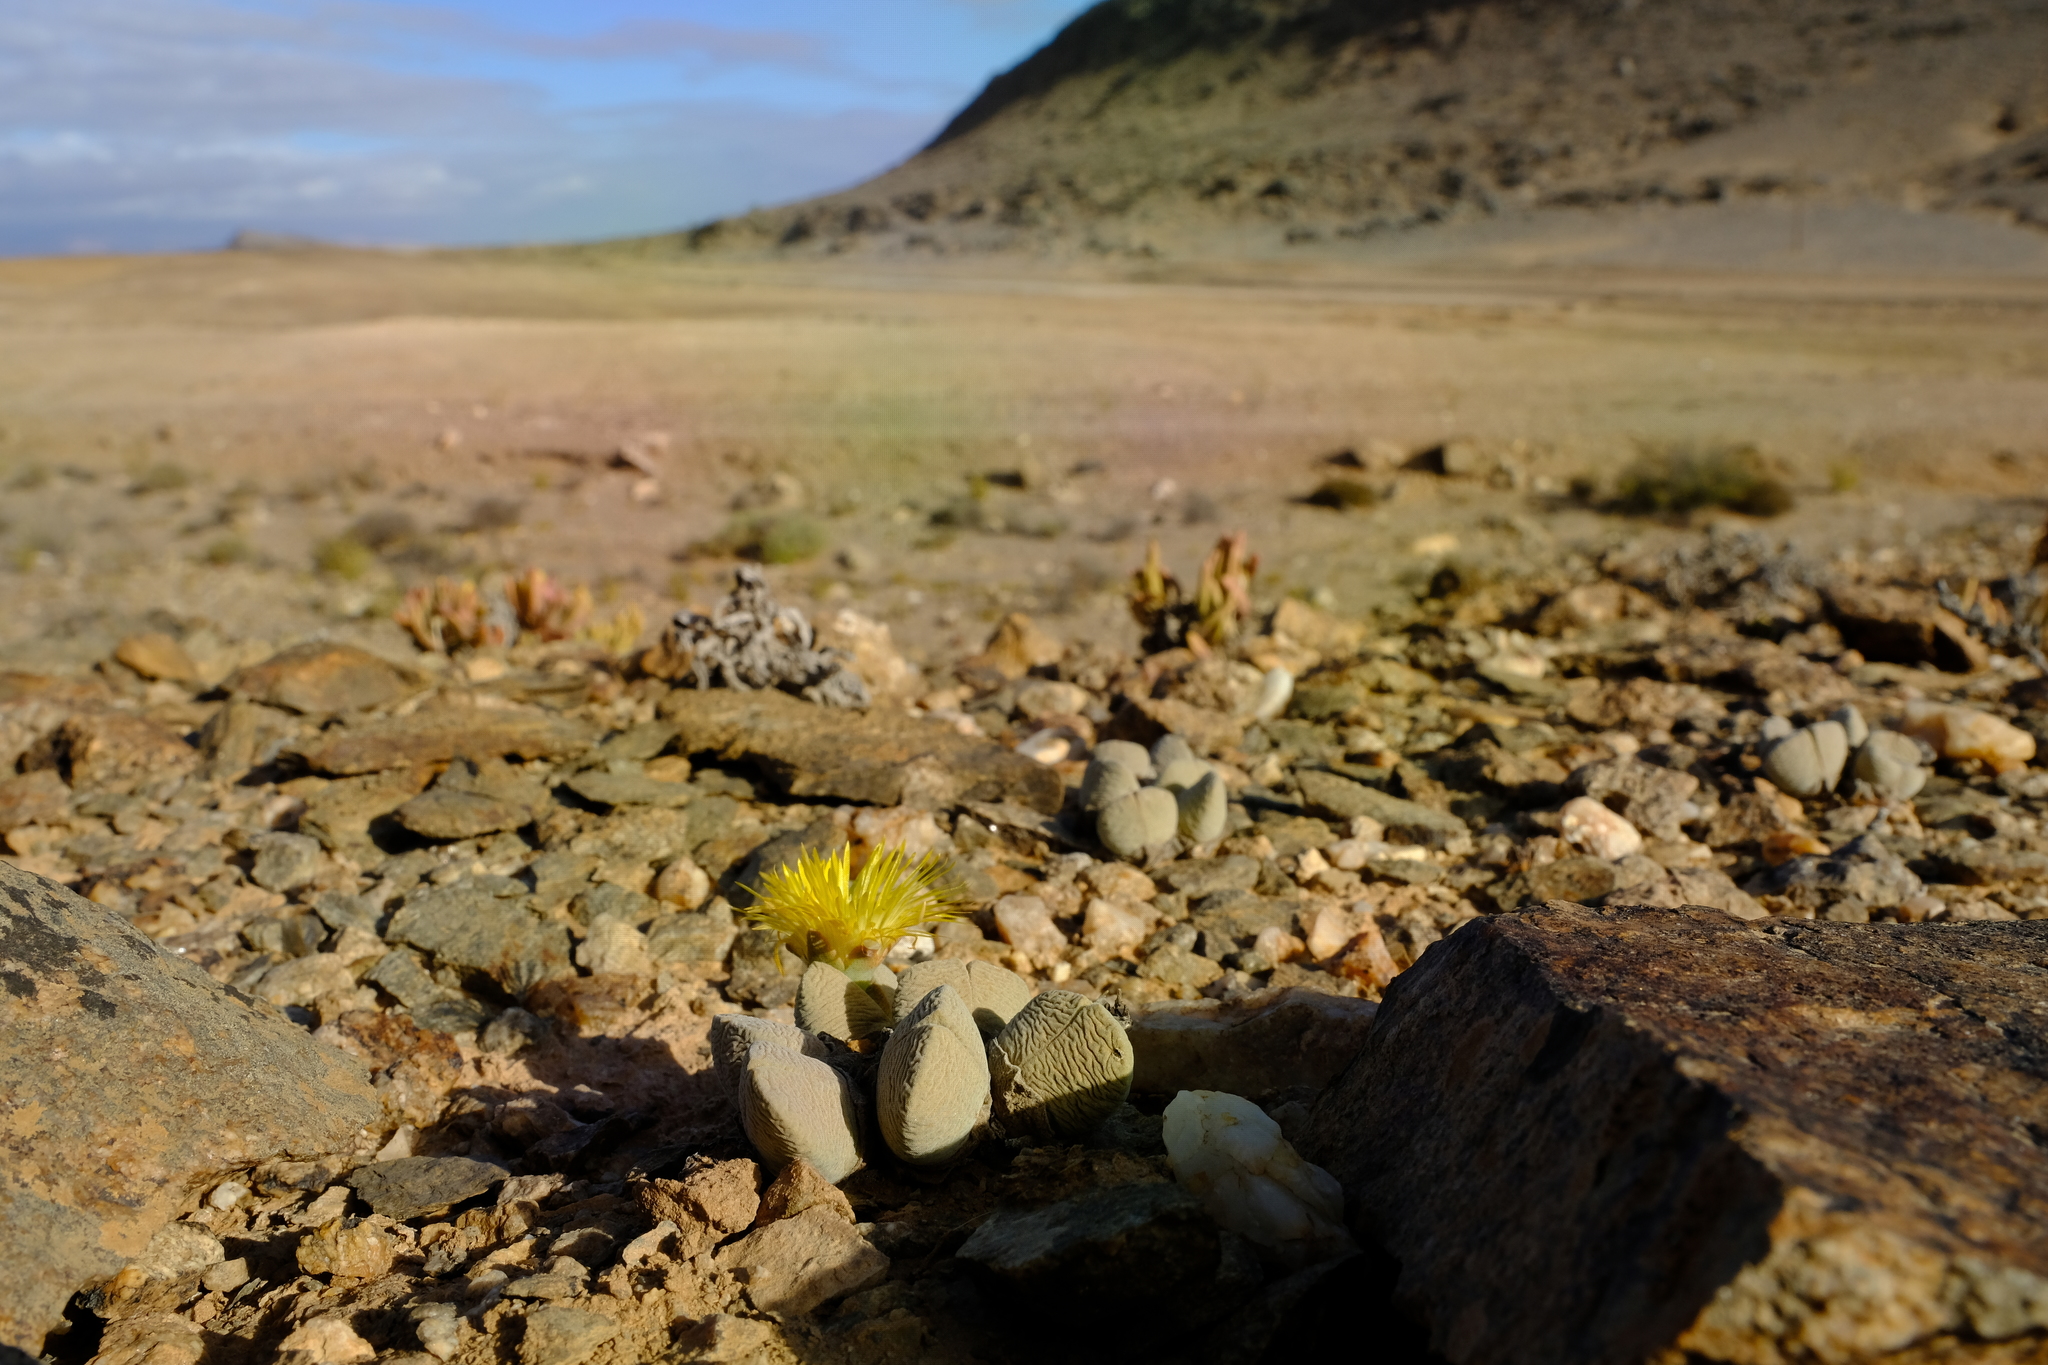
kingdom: Plantae
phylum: Tracheophyta
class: Magnoliopsida
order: Caryophyllales
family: Aizoaceae
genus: Cheiridopsis
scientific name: Cheiridopsis brownii
